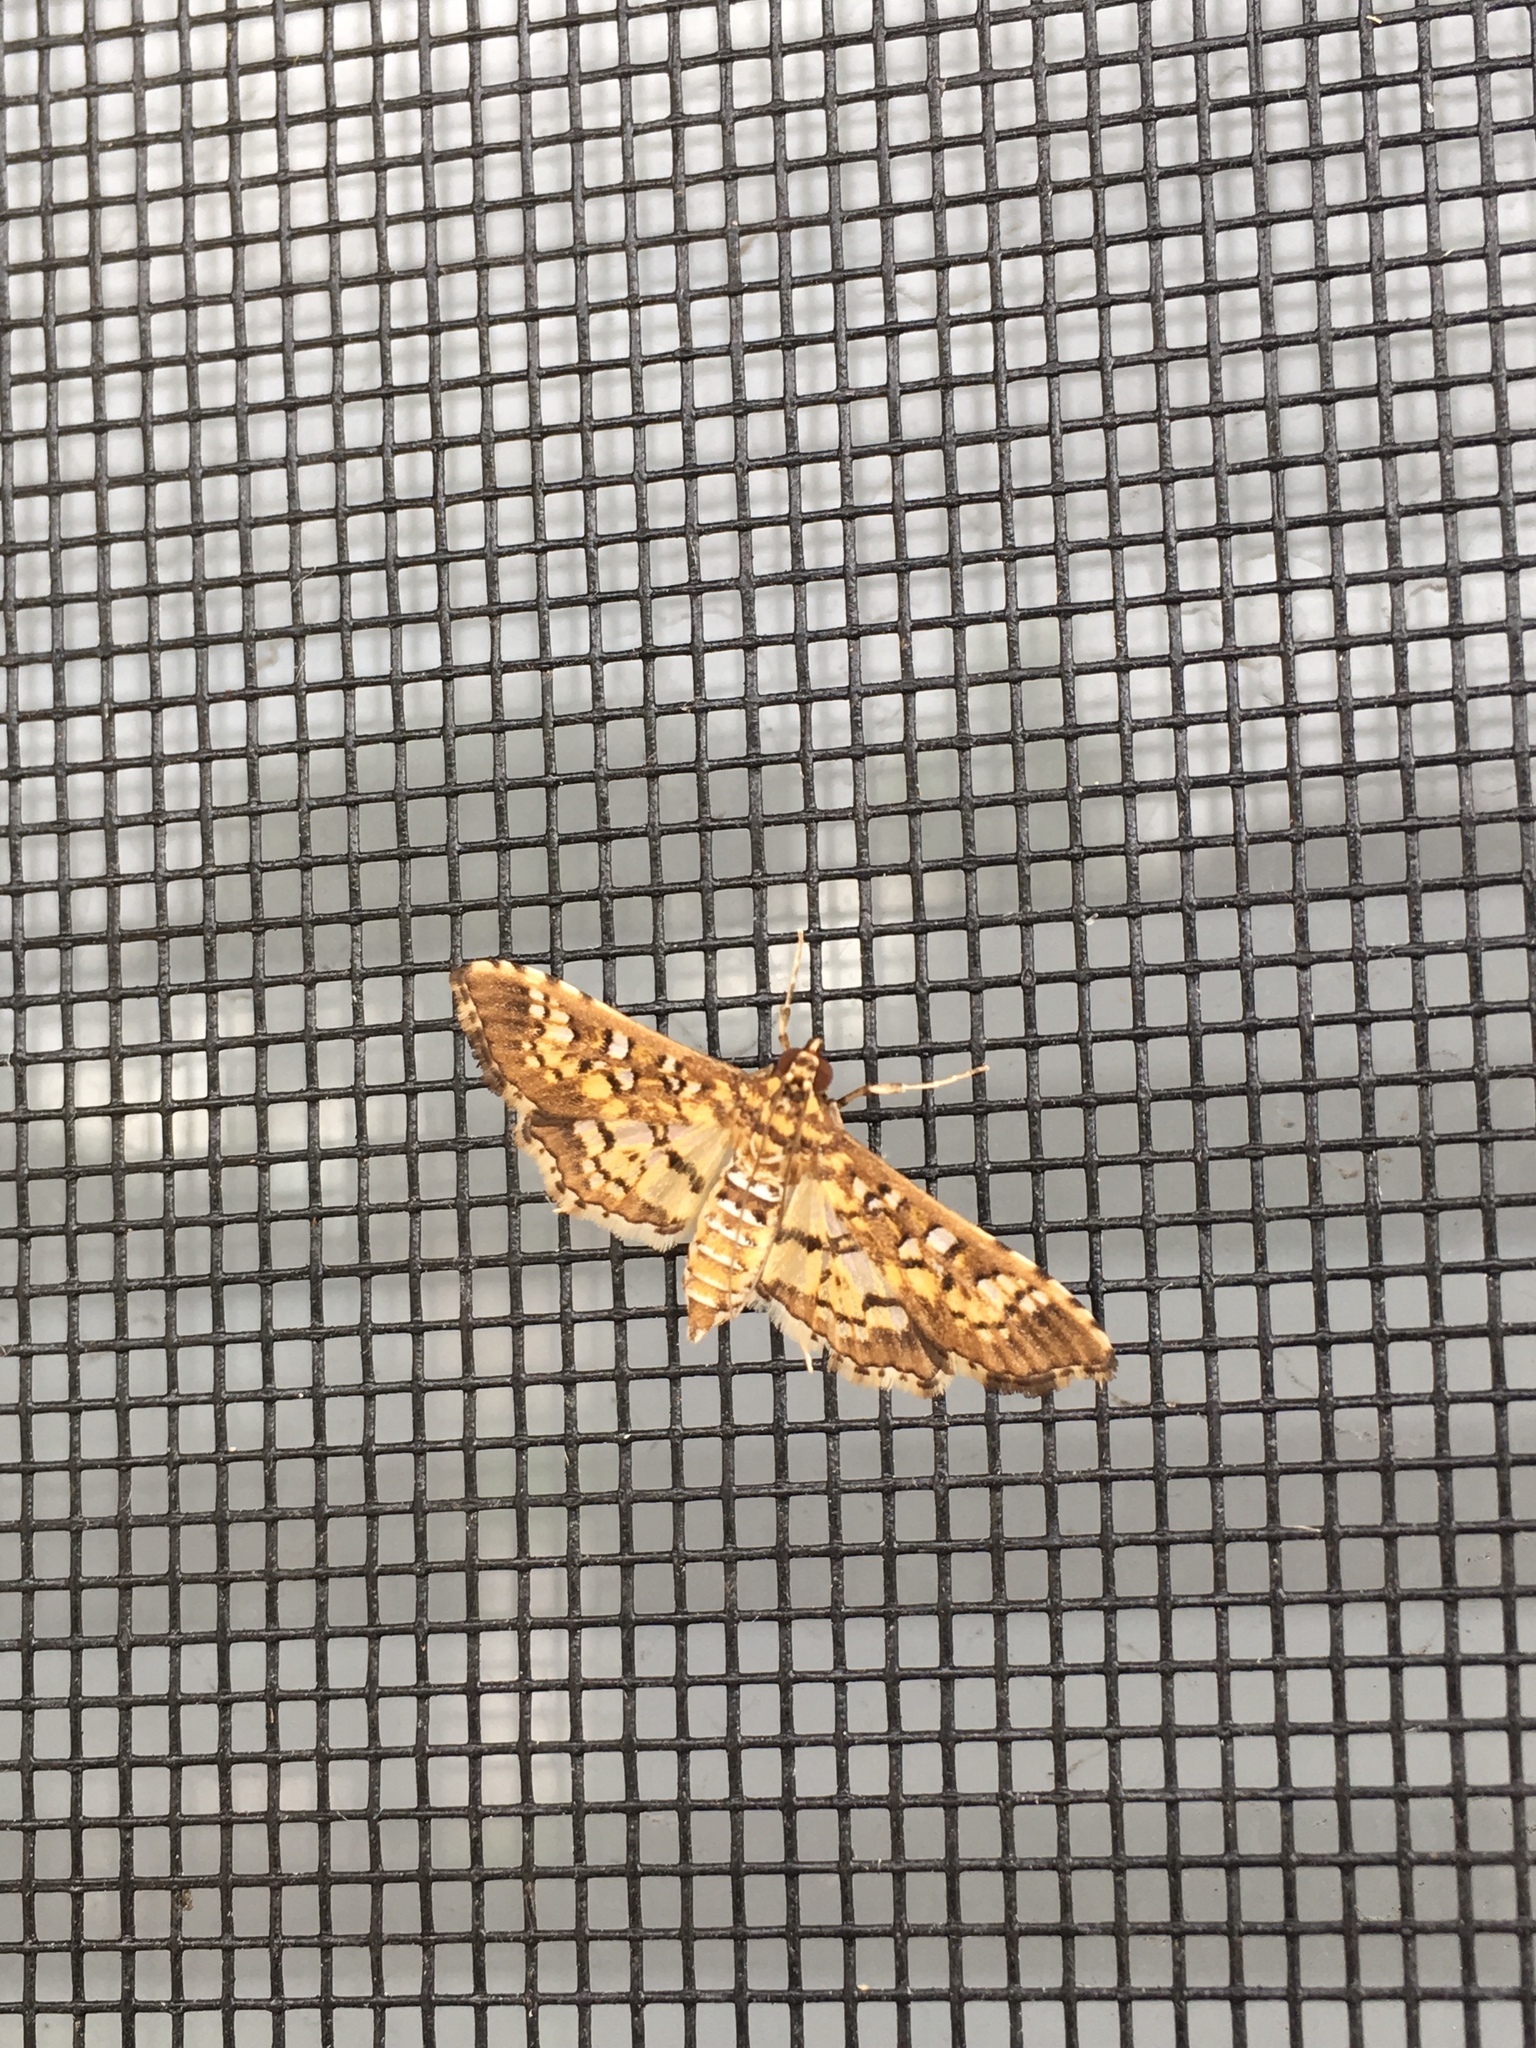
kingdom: Animalia
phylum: Arthropoda
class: Insecta
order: Lepidoptera
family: Crambidae
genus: Samea
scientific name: Samea ecclesialis
